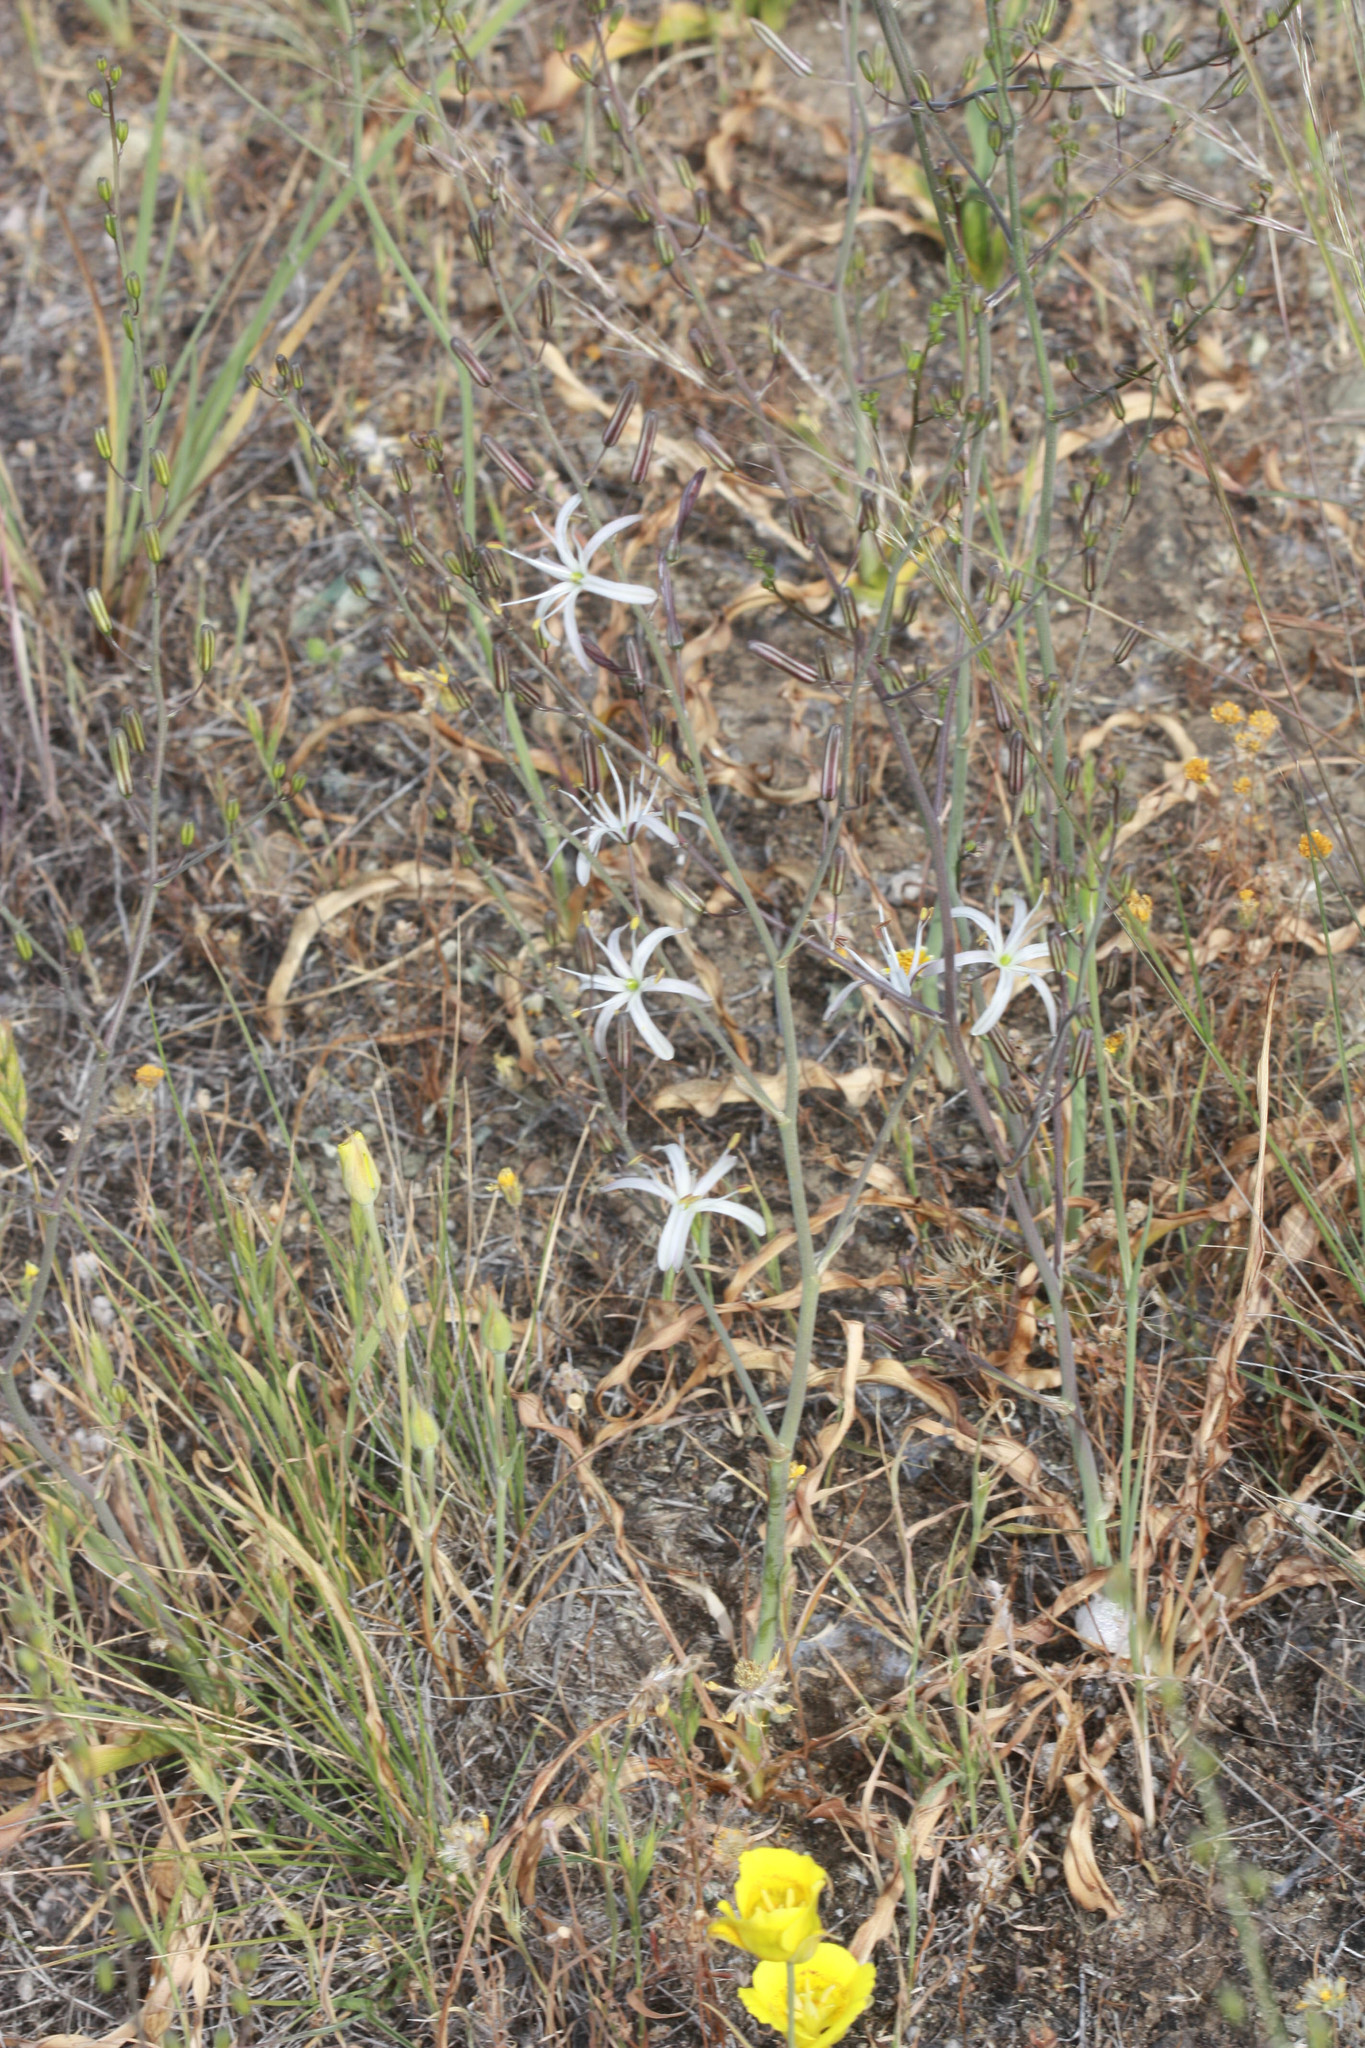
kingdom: Plantae
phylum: Tracheophyta
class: Liliopsida
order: Asparagales
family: Asparagaceae
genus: Chlorogalum
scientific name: Chlorogalum pomeridianum
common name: Amole
